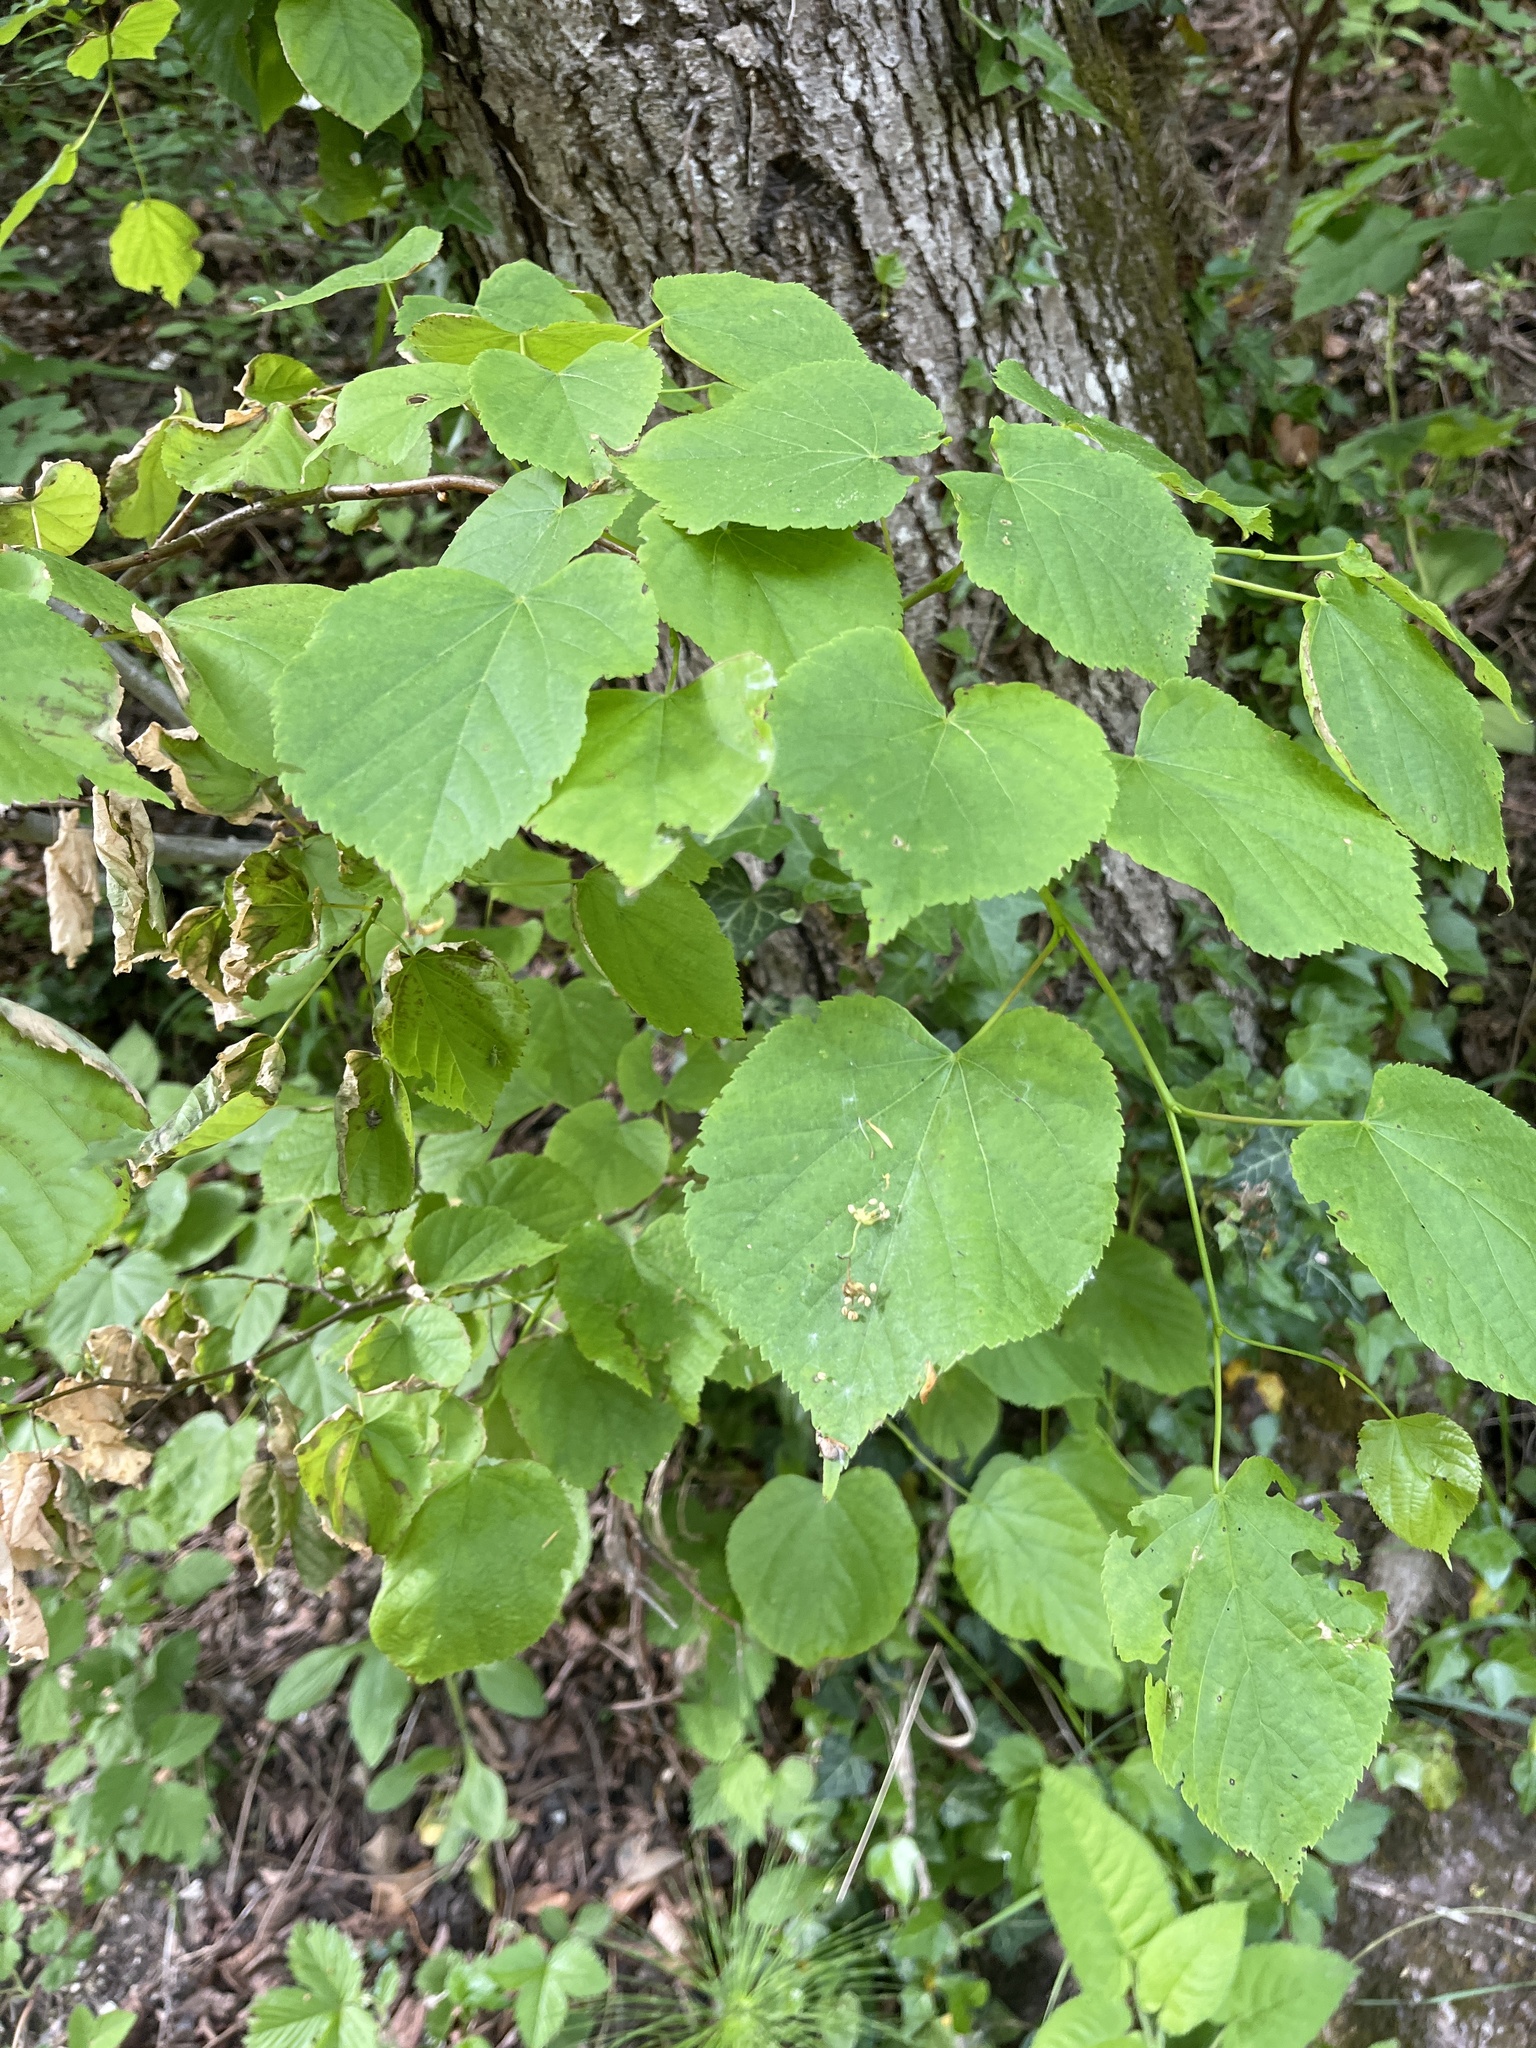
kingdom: Plantae
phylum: Tracheophyta
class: Magnoliopsida
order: Malvales
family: Malvaceae
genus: Tilia
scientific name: Tilia platyphyllos
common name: Large-leaved lime
